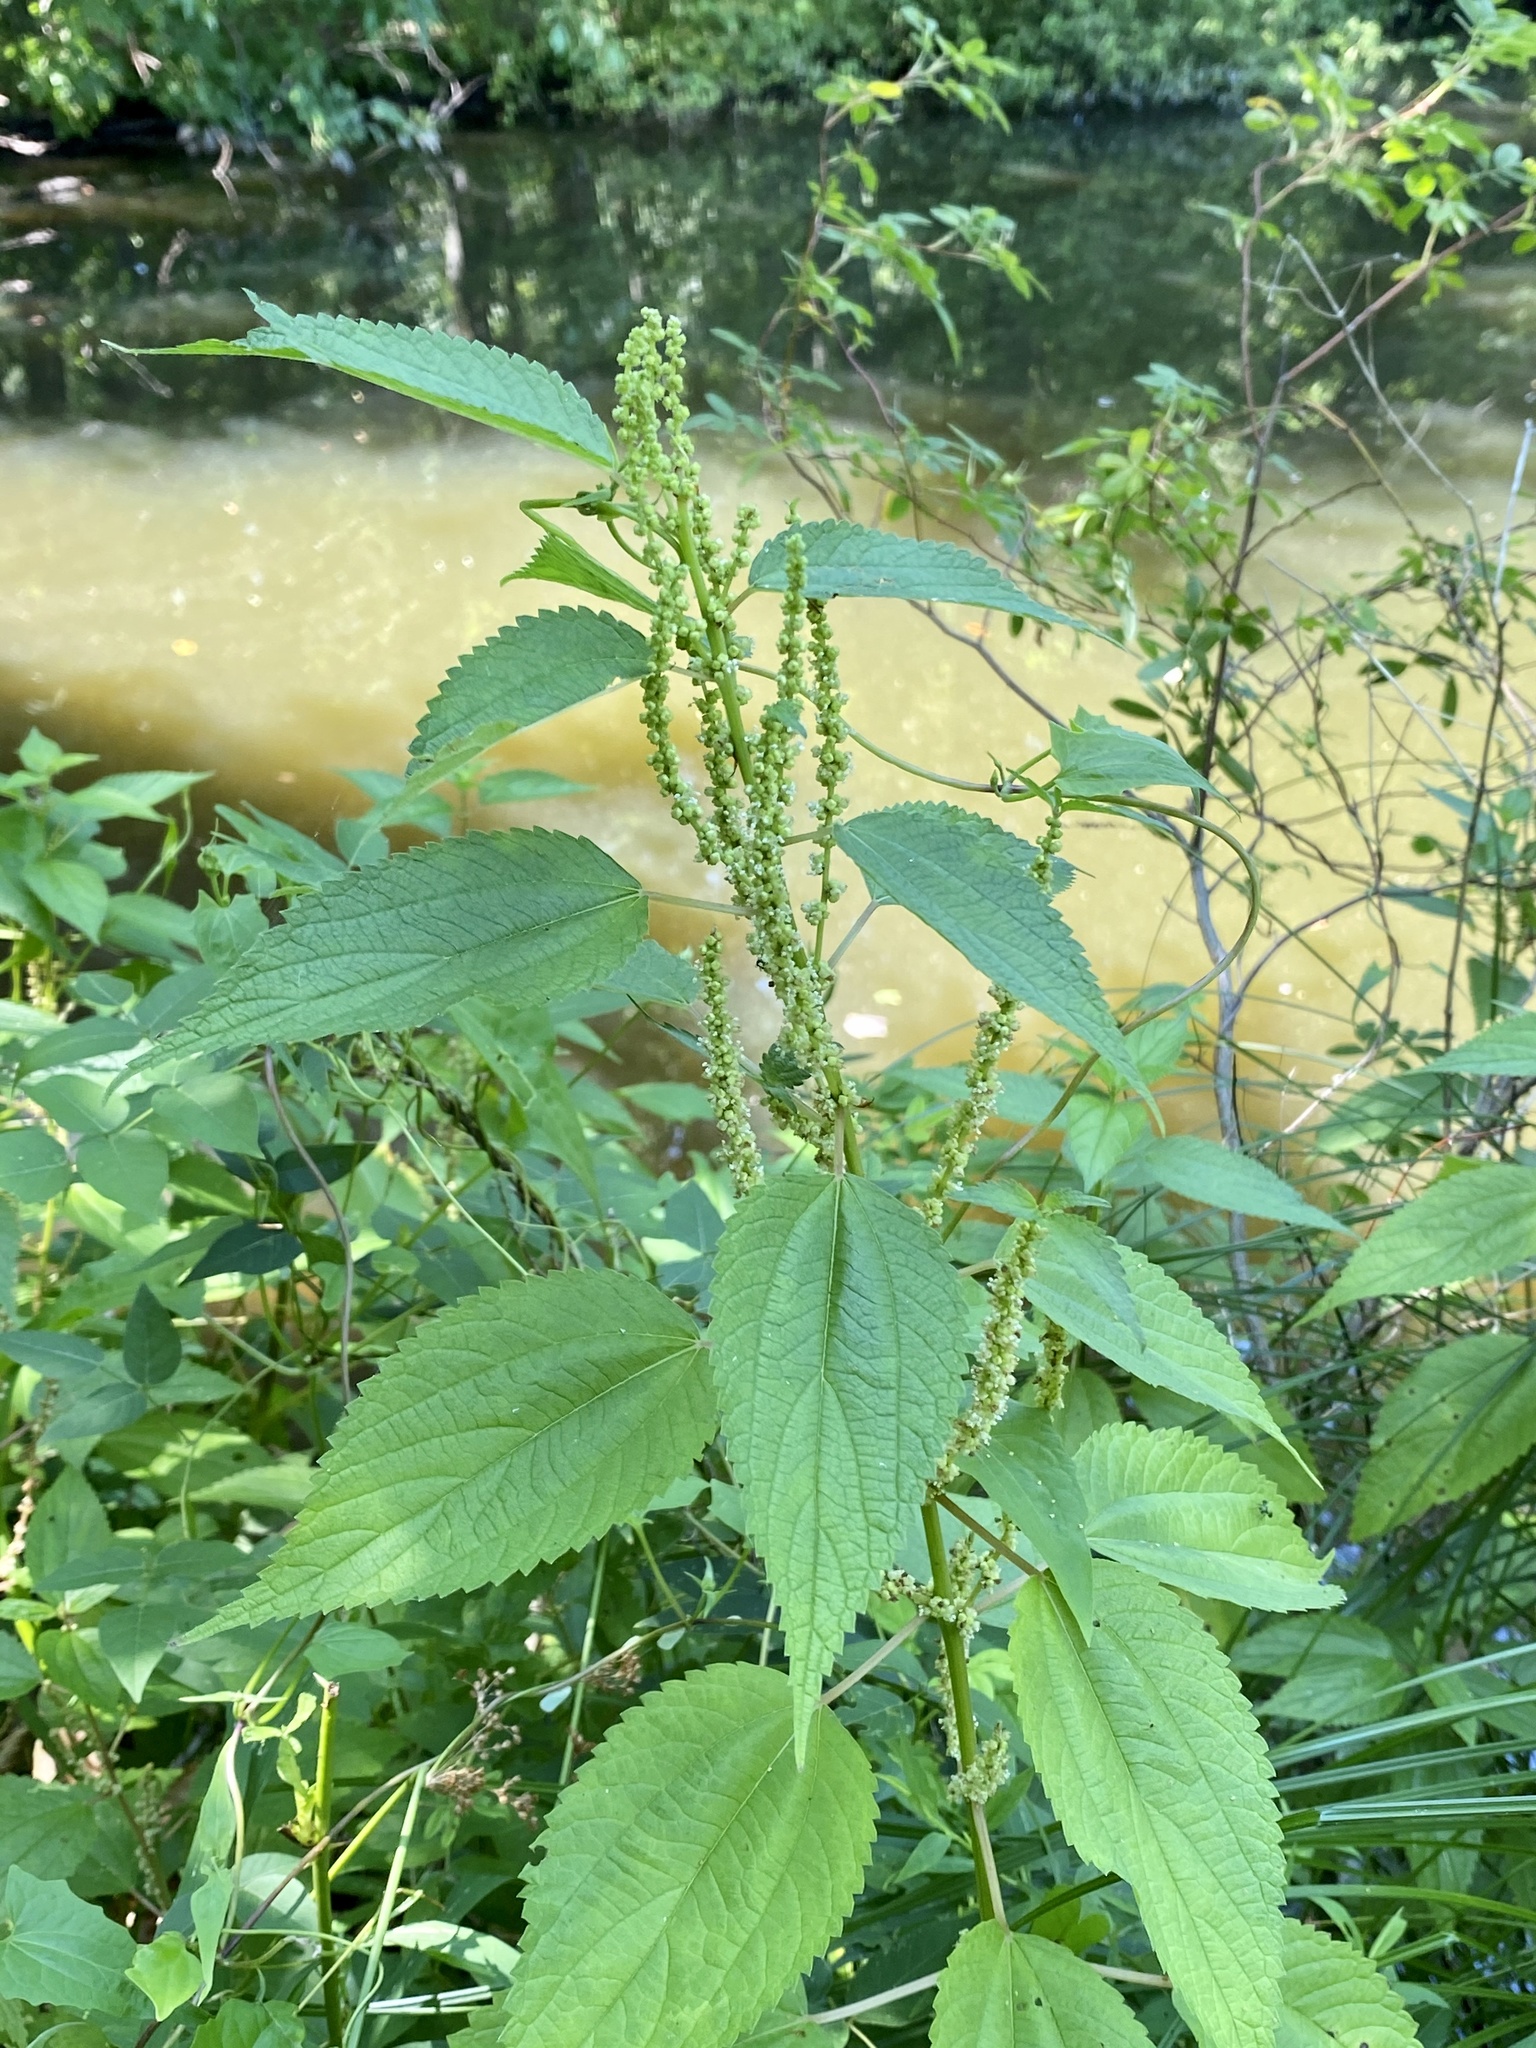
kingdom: Plantae
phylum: Tracheophyta
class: Magnoliopsida
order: Rosales
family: Urticaceae
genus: Boehmeria
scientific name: Boehmeria cylindrica
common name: Bog-hemp
